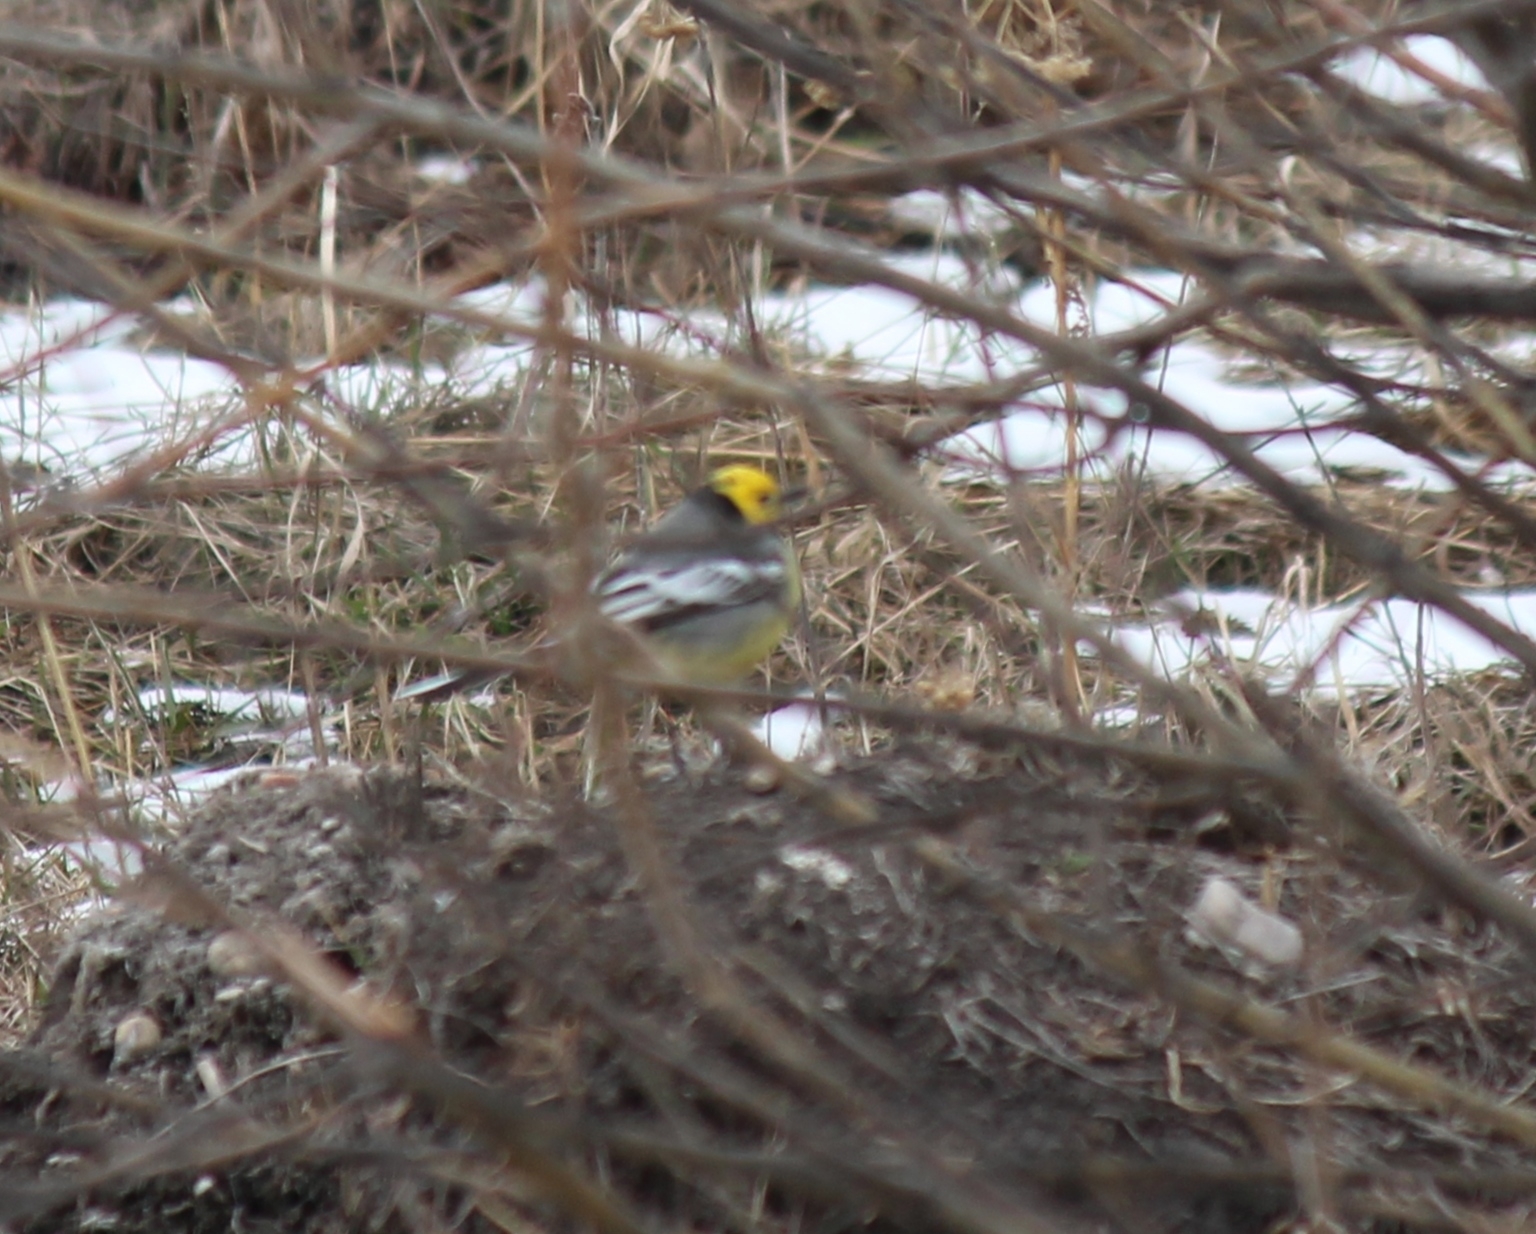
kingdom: Animalia
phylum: Chordata
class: Aves
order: Passeriformes
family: Motacillidae
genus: Motacilla
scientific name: Motacilla citreola
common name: Citrine wagtail
